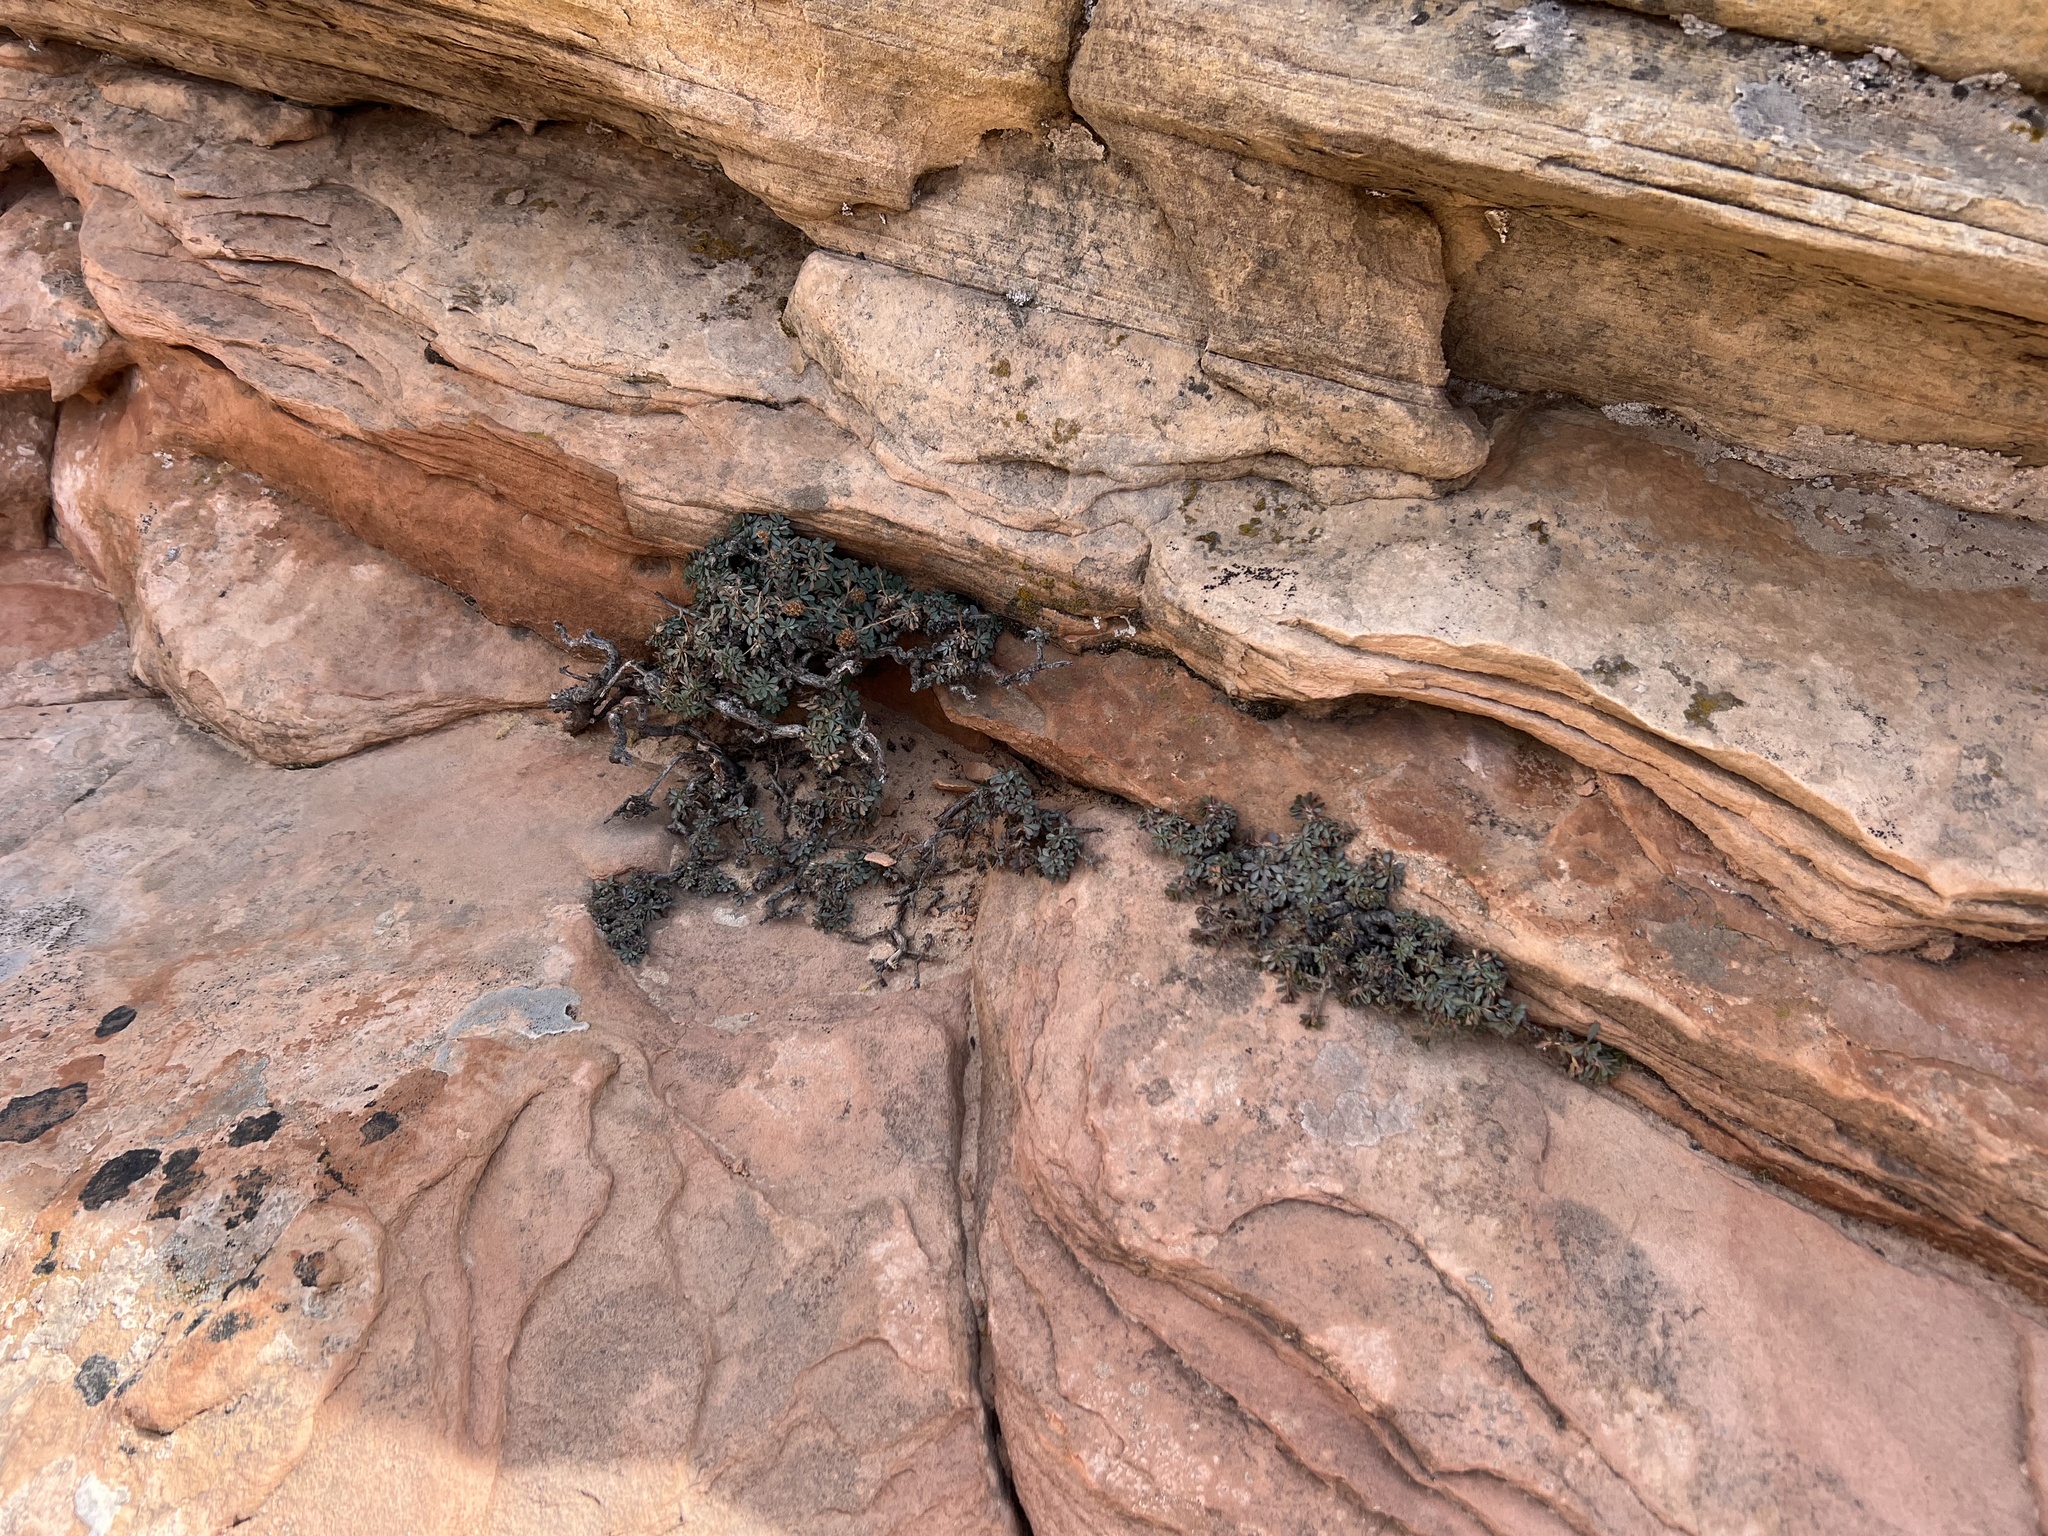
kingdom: Plantae
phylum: Tracheophyta
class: Magnoliopsida
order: Rosales
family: Rosaceae
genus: Petrophytum
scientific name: Petrophytum caespitosum
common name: Mat rockspirea
